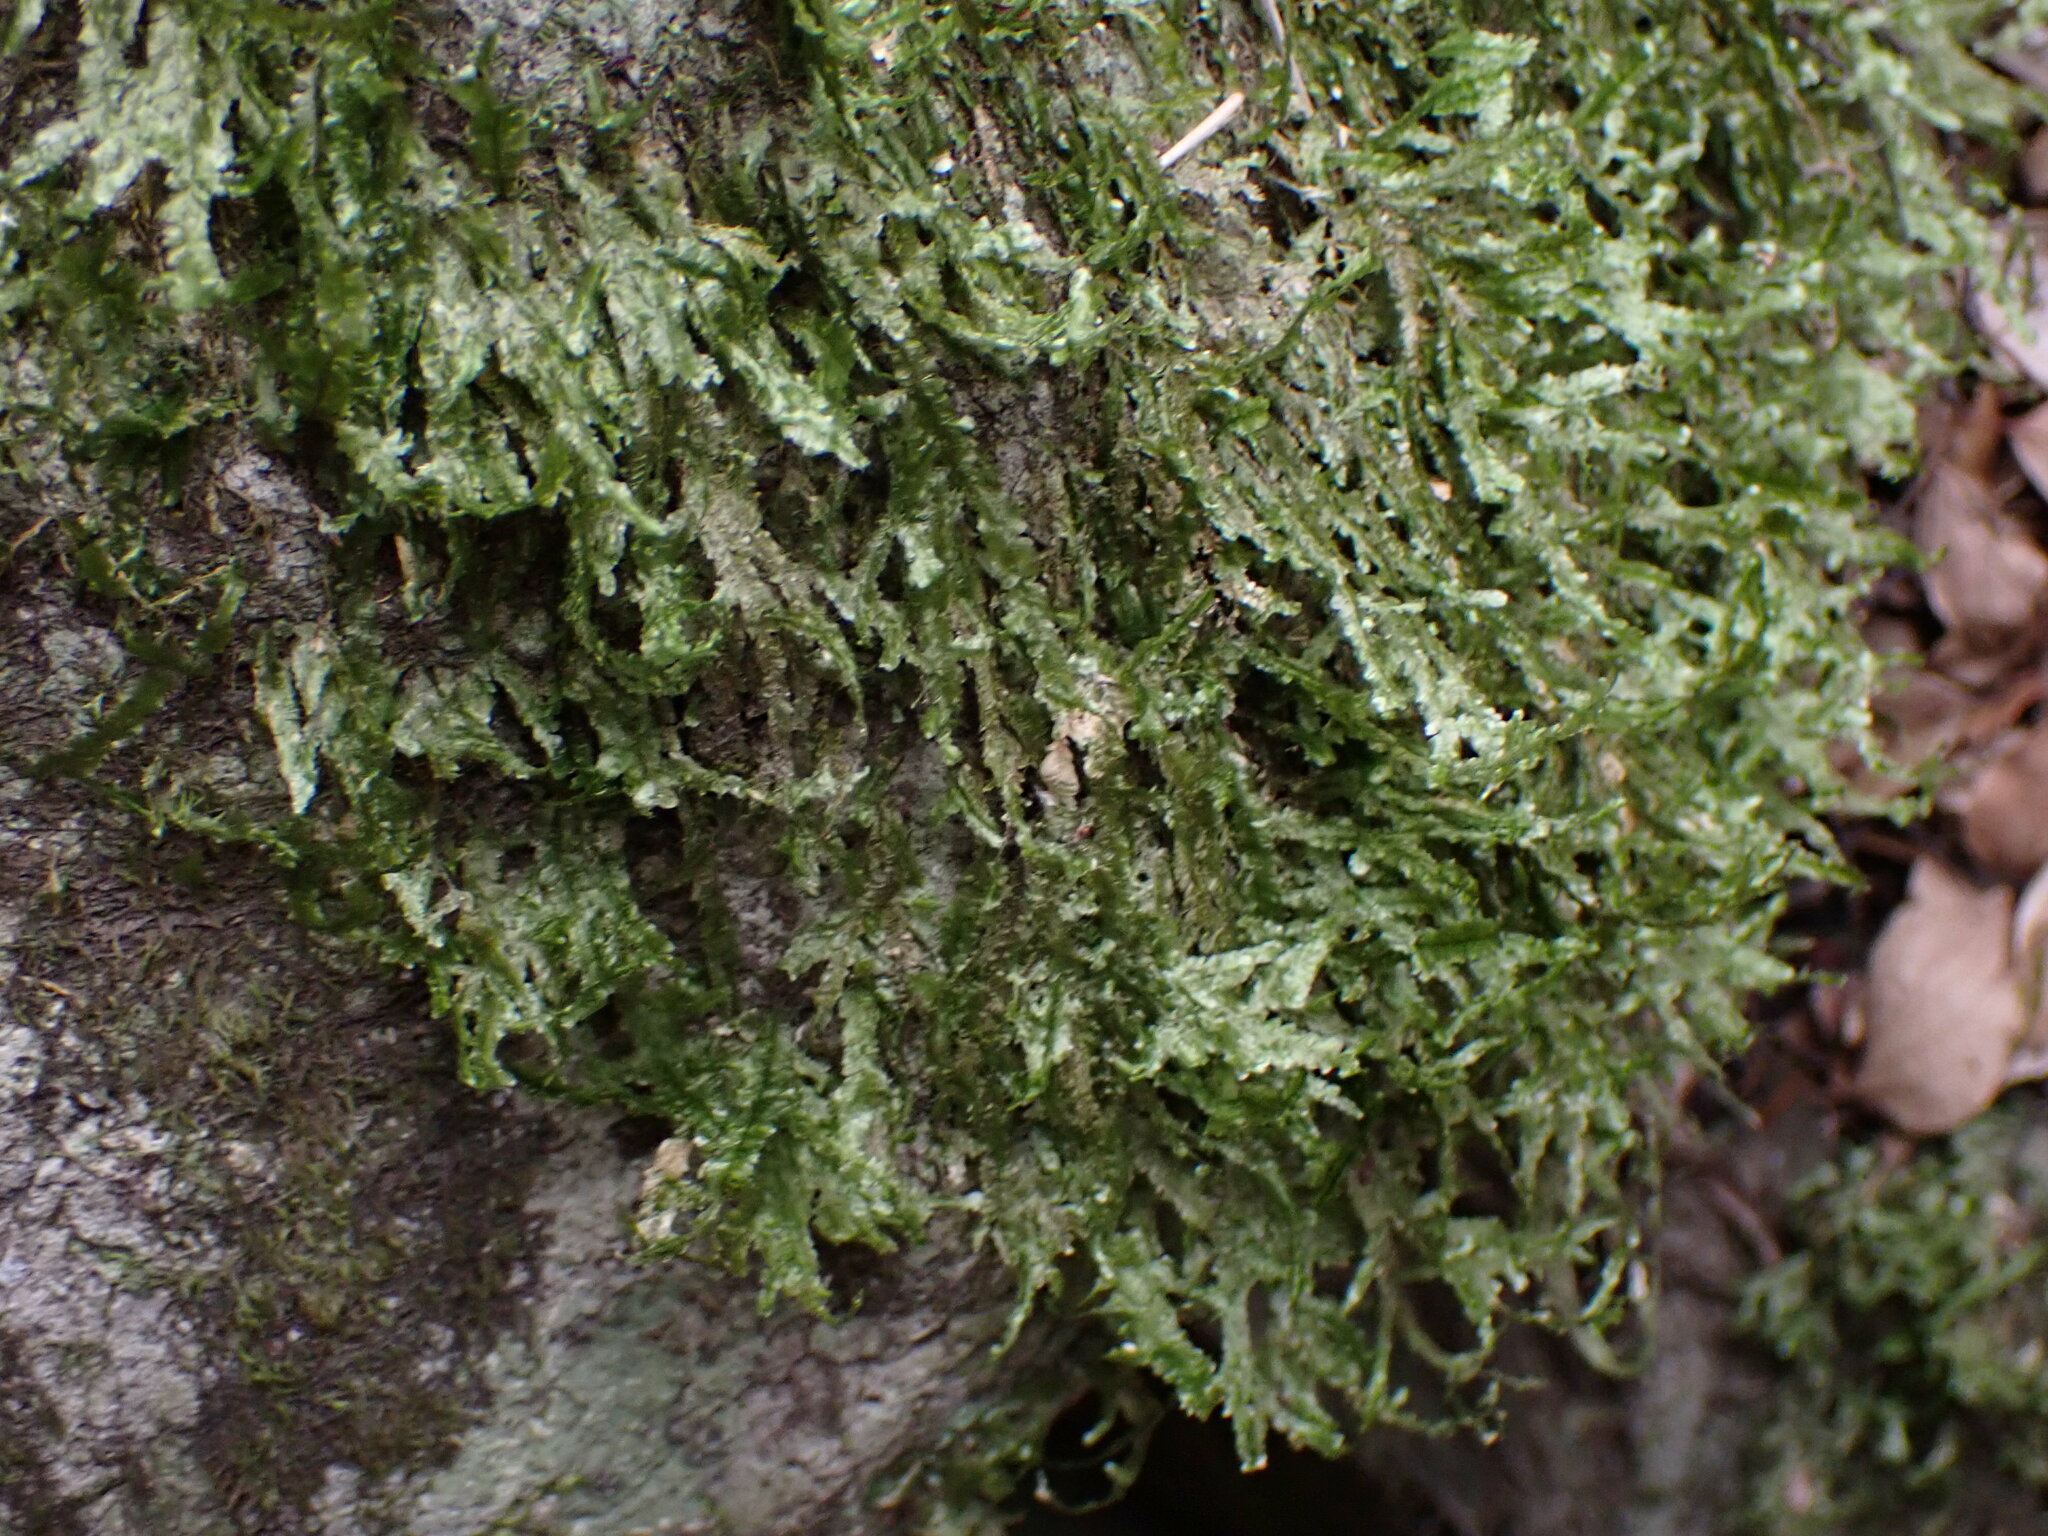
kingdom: Plantae
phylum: Bryophyta
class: Bryopsida
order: Hypnales
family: Neckeraceae
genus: Planicladium
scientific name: Planicladium nitidulum
